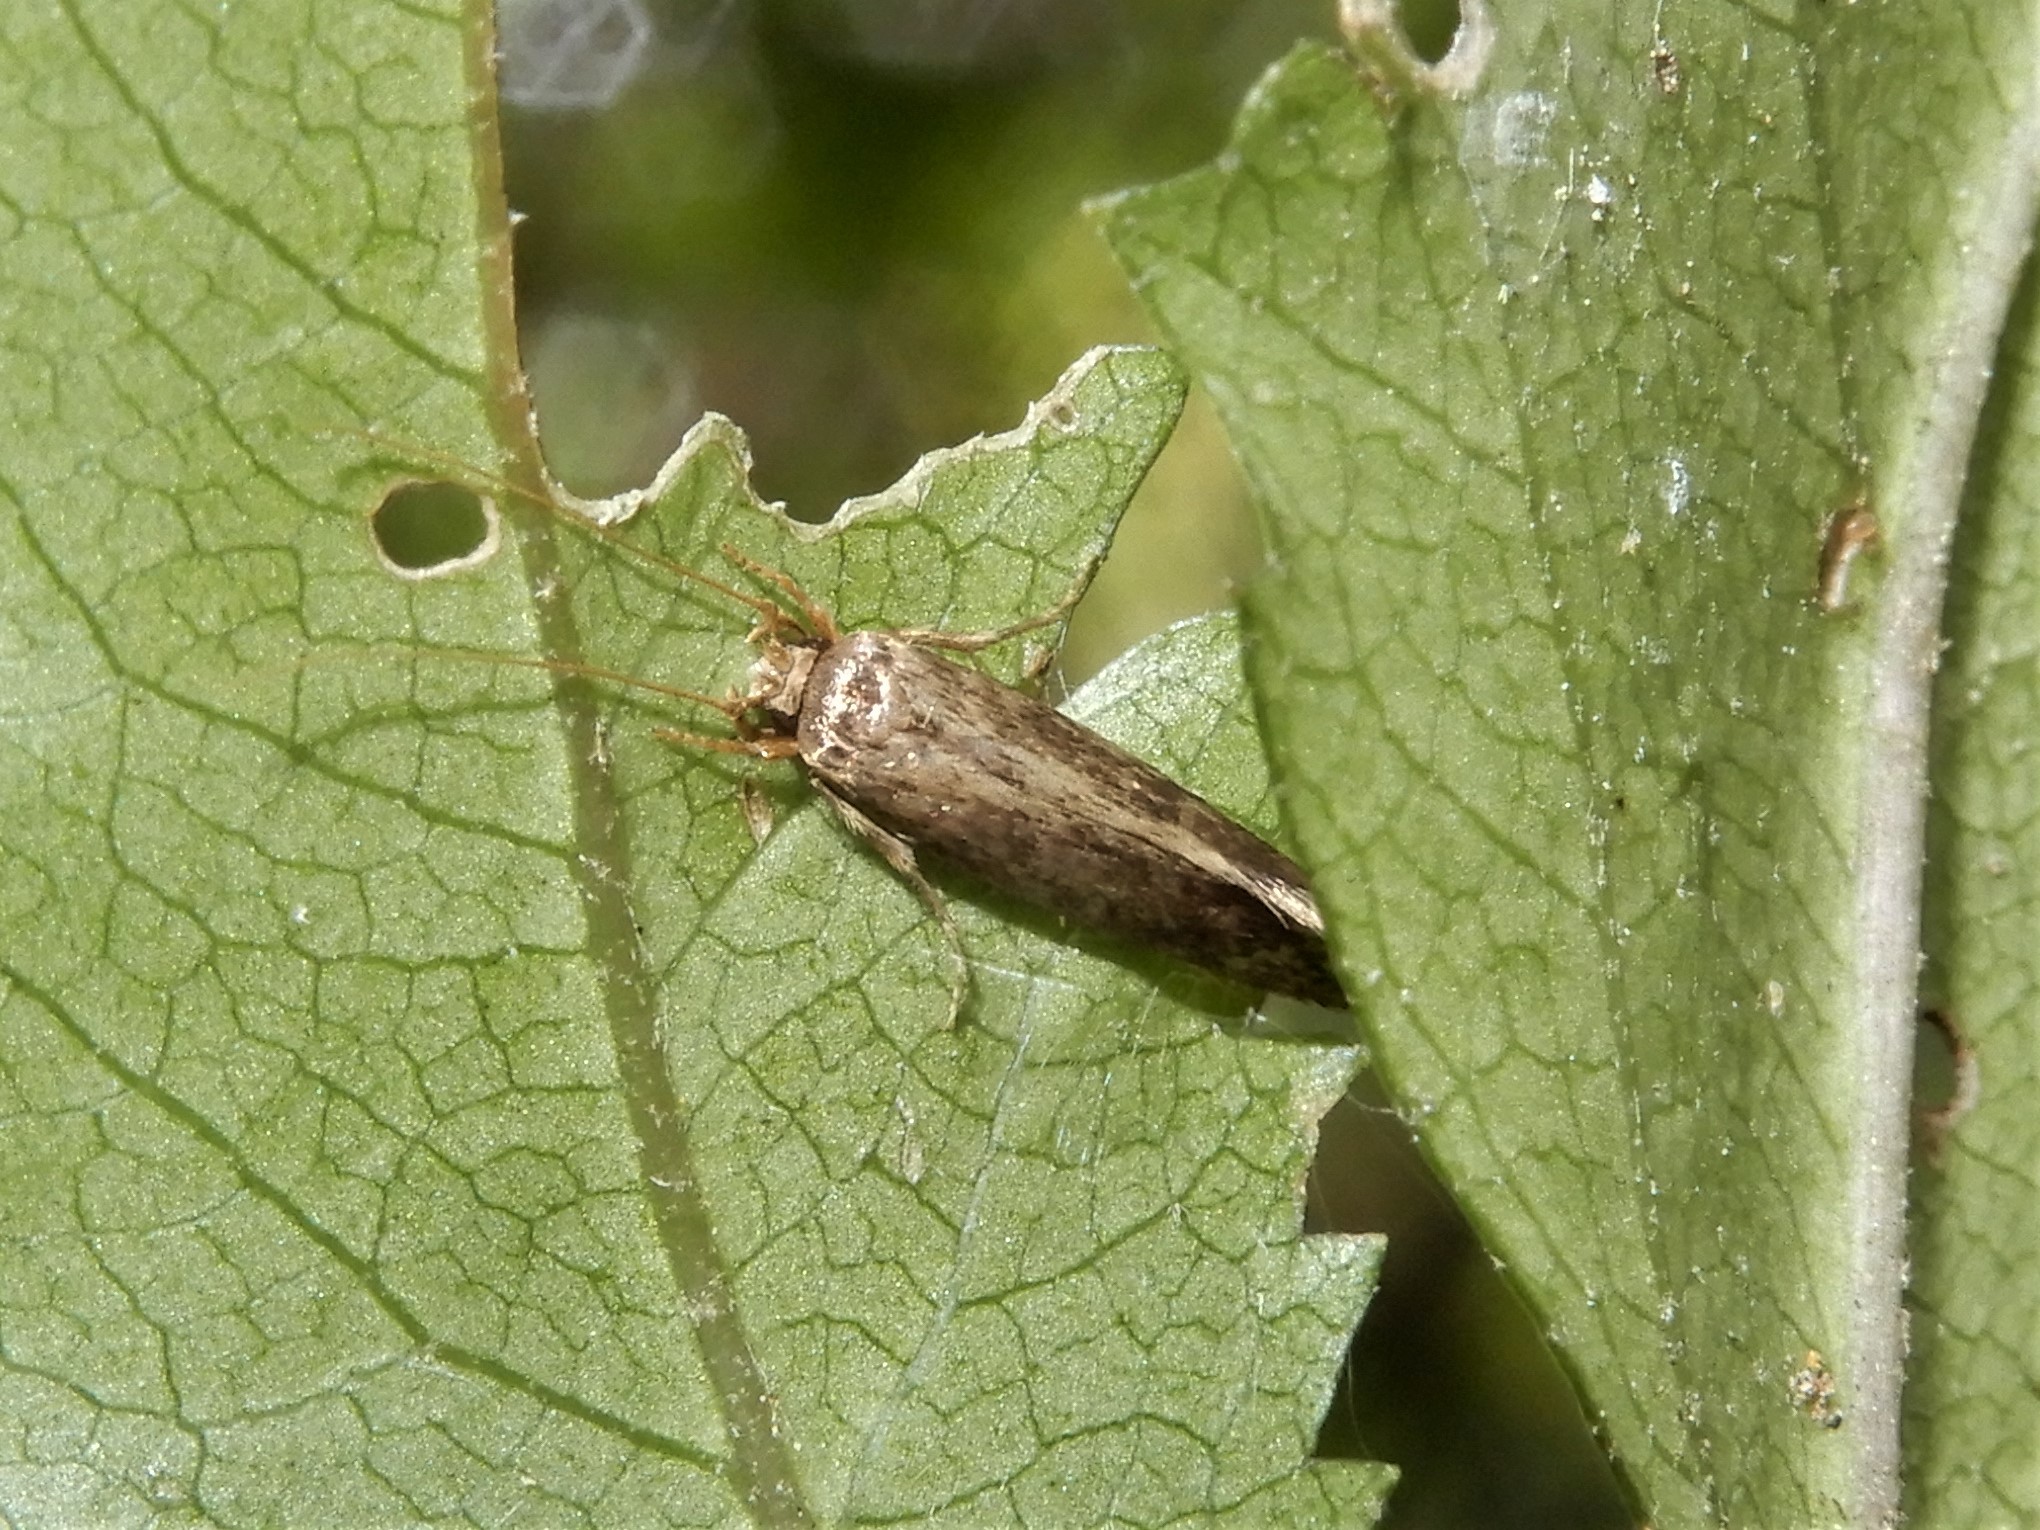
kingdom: Animalia
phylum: Arthropoda
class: Insecta
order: Lepidoptera
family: Tineidae
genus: Opogona
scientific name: Opogona omoscopa
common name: Moth
